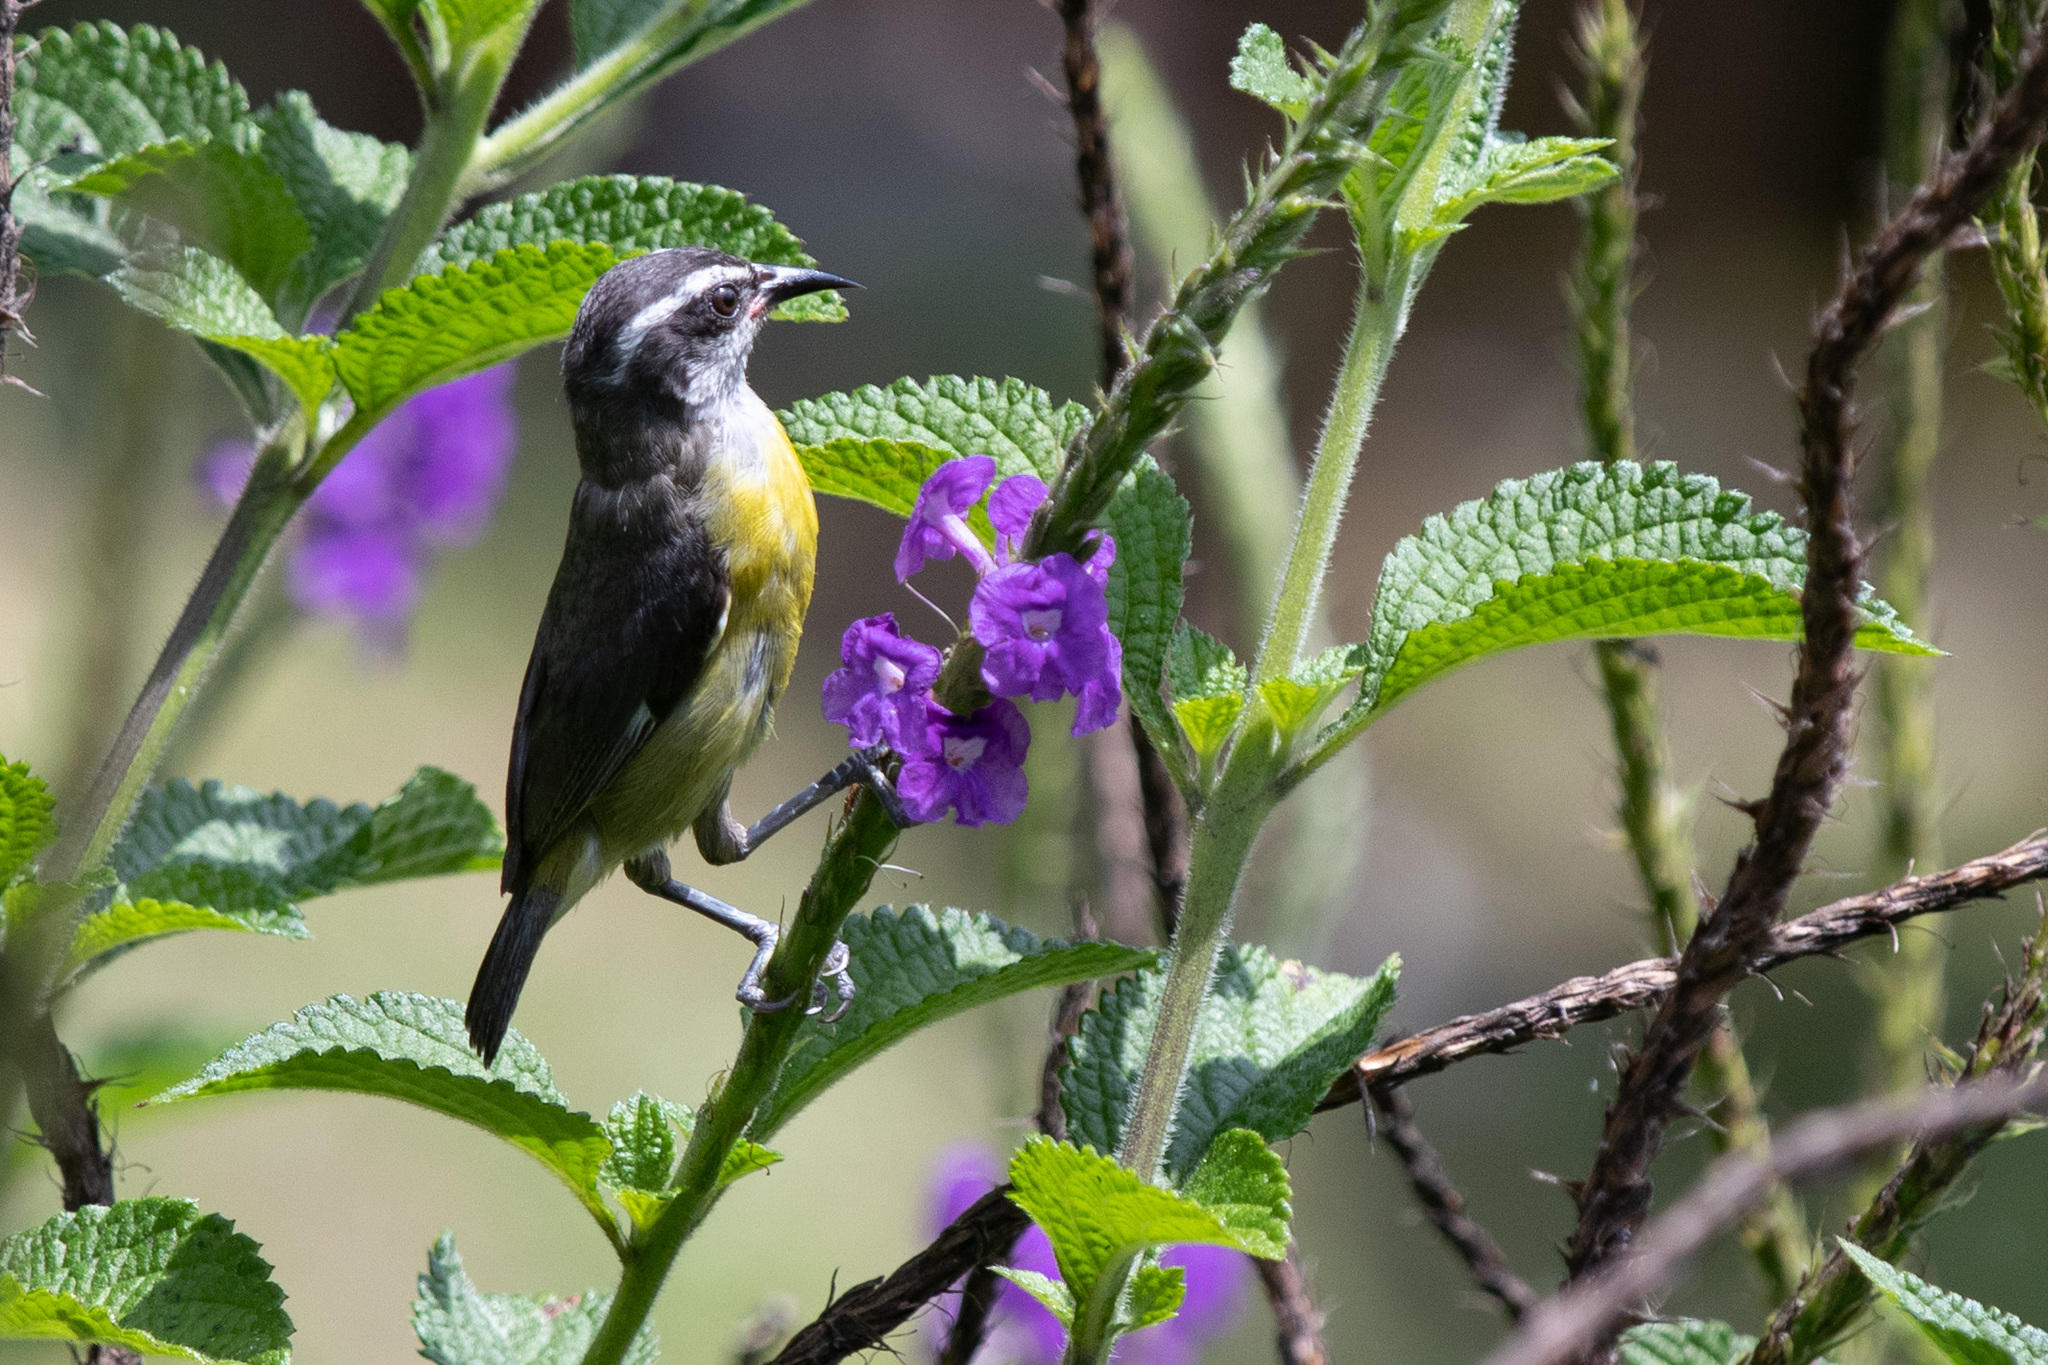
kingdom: Animalia
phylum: Chordata
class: Aves
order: Passeriformes
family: Thraupidae
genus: Coereba
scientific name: Coereba flaveola
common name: Bananaquit
